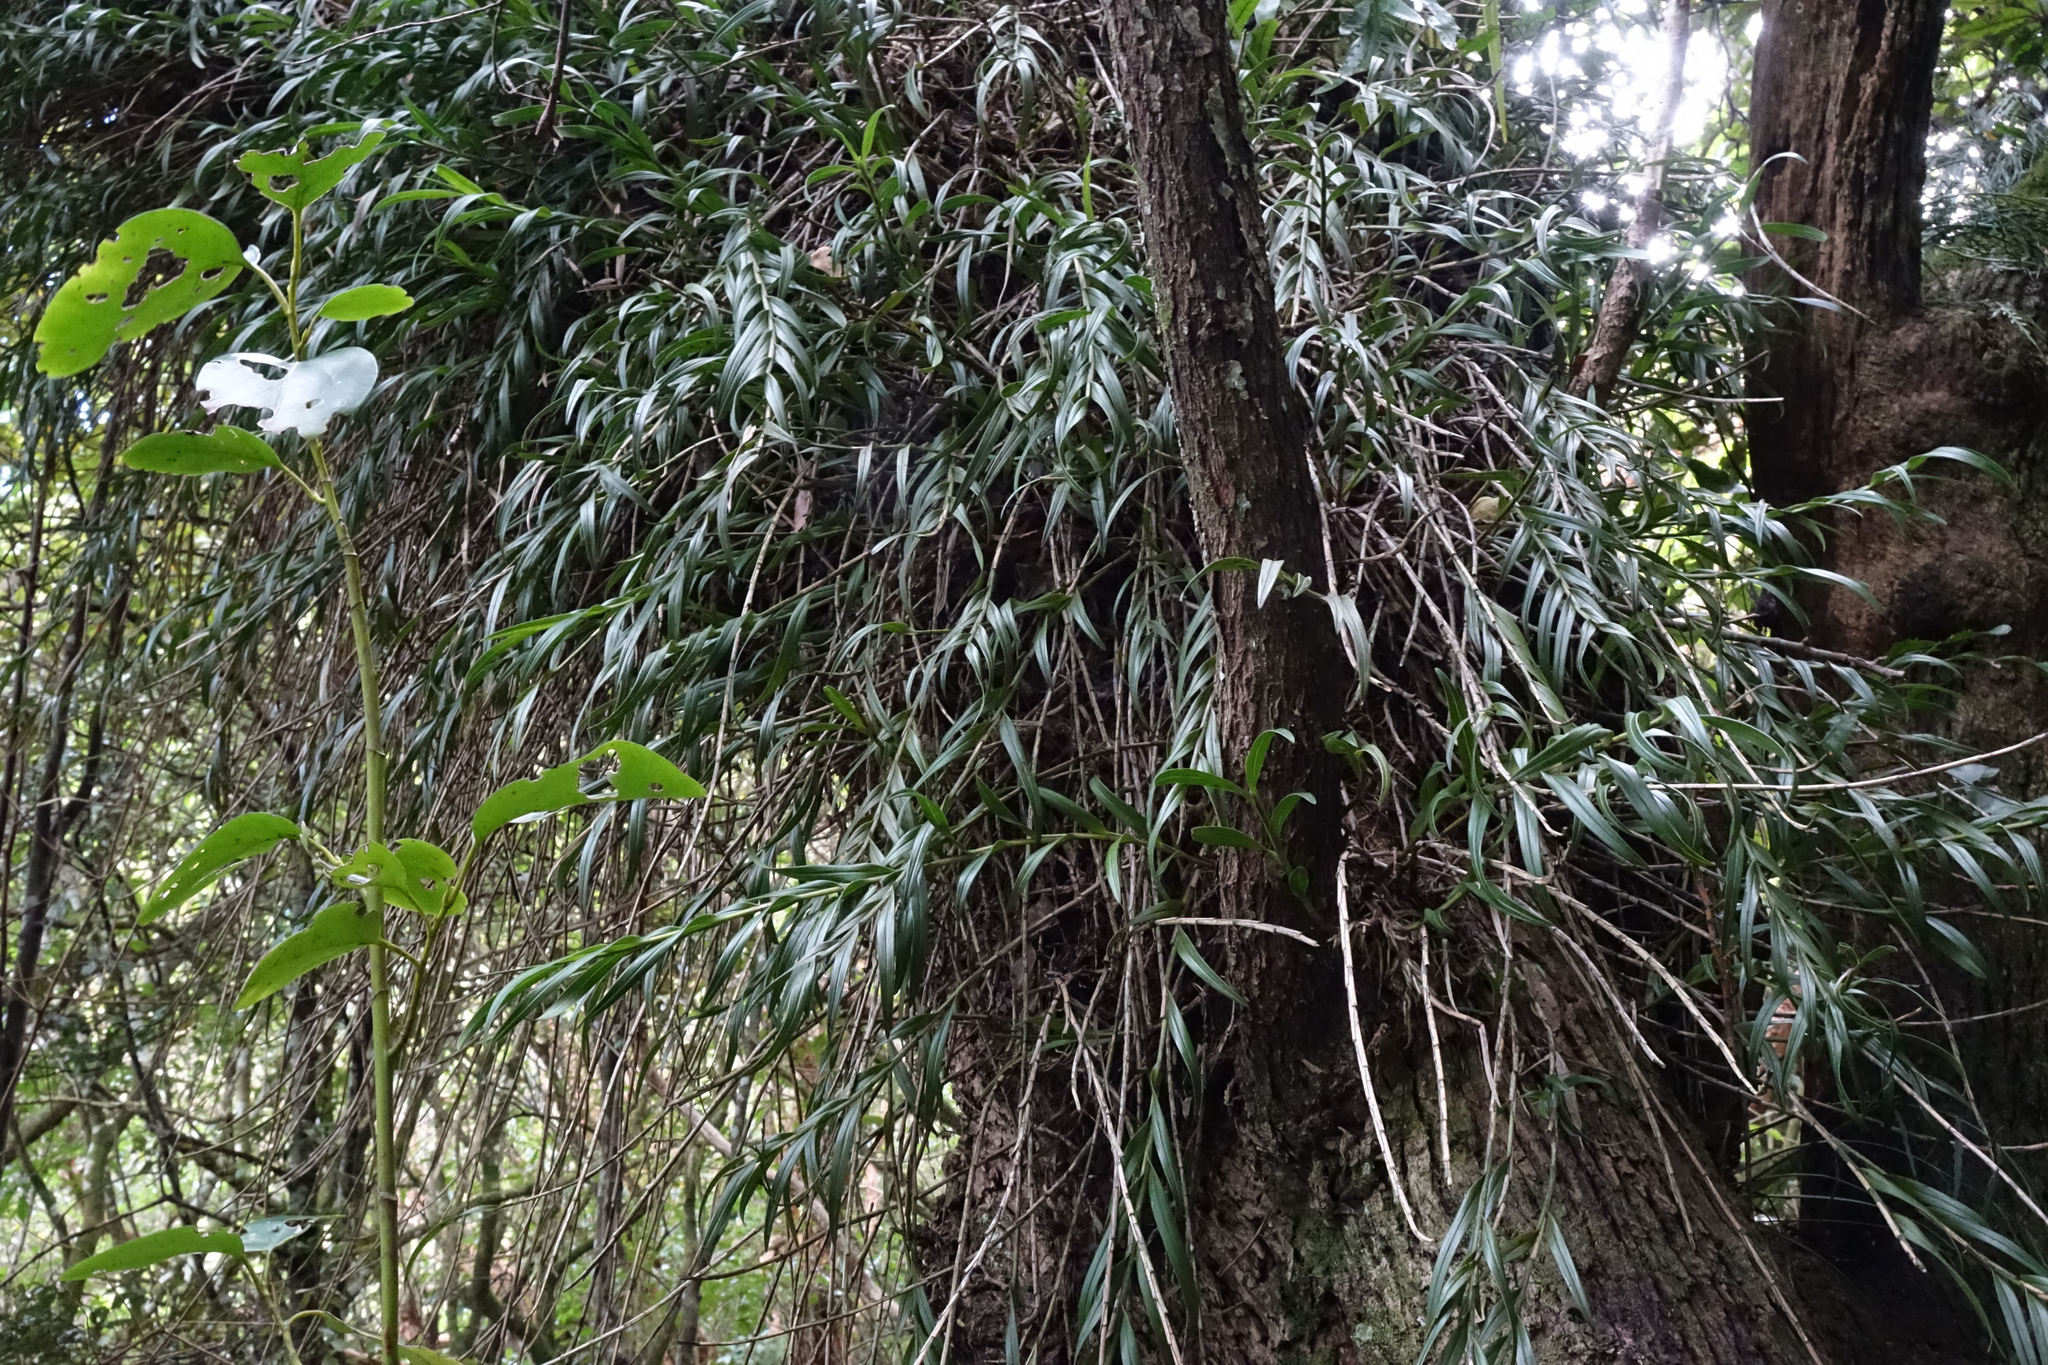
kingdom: Plantae
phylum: Tracheophyta
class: Liliopsida
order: Asparagales
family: Orchidaceae
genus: Earina
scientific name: Earina autumnalis
